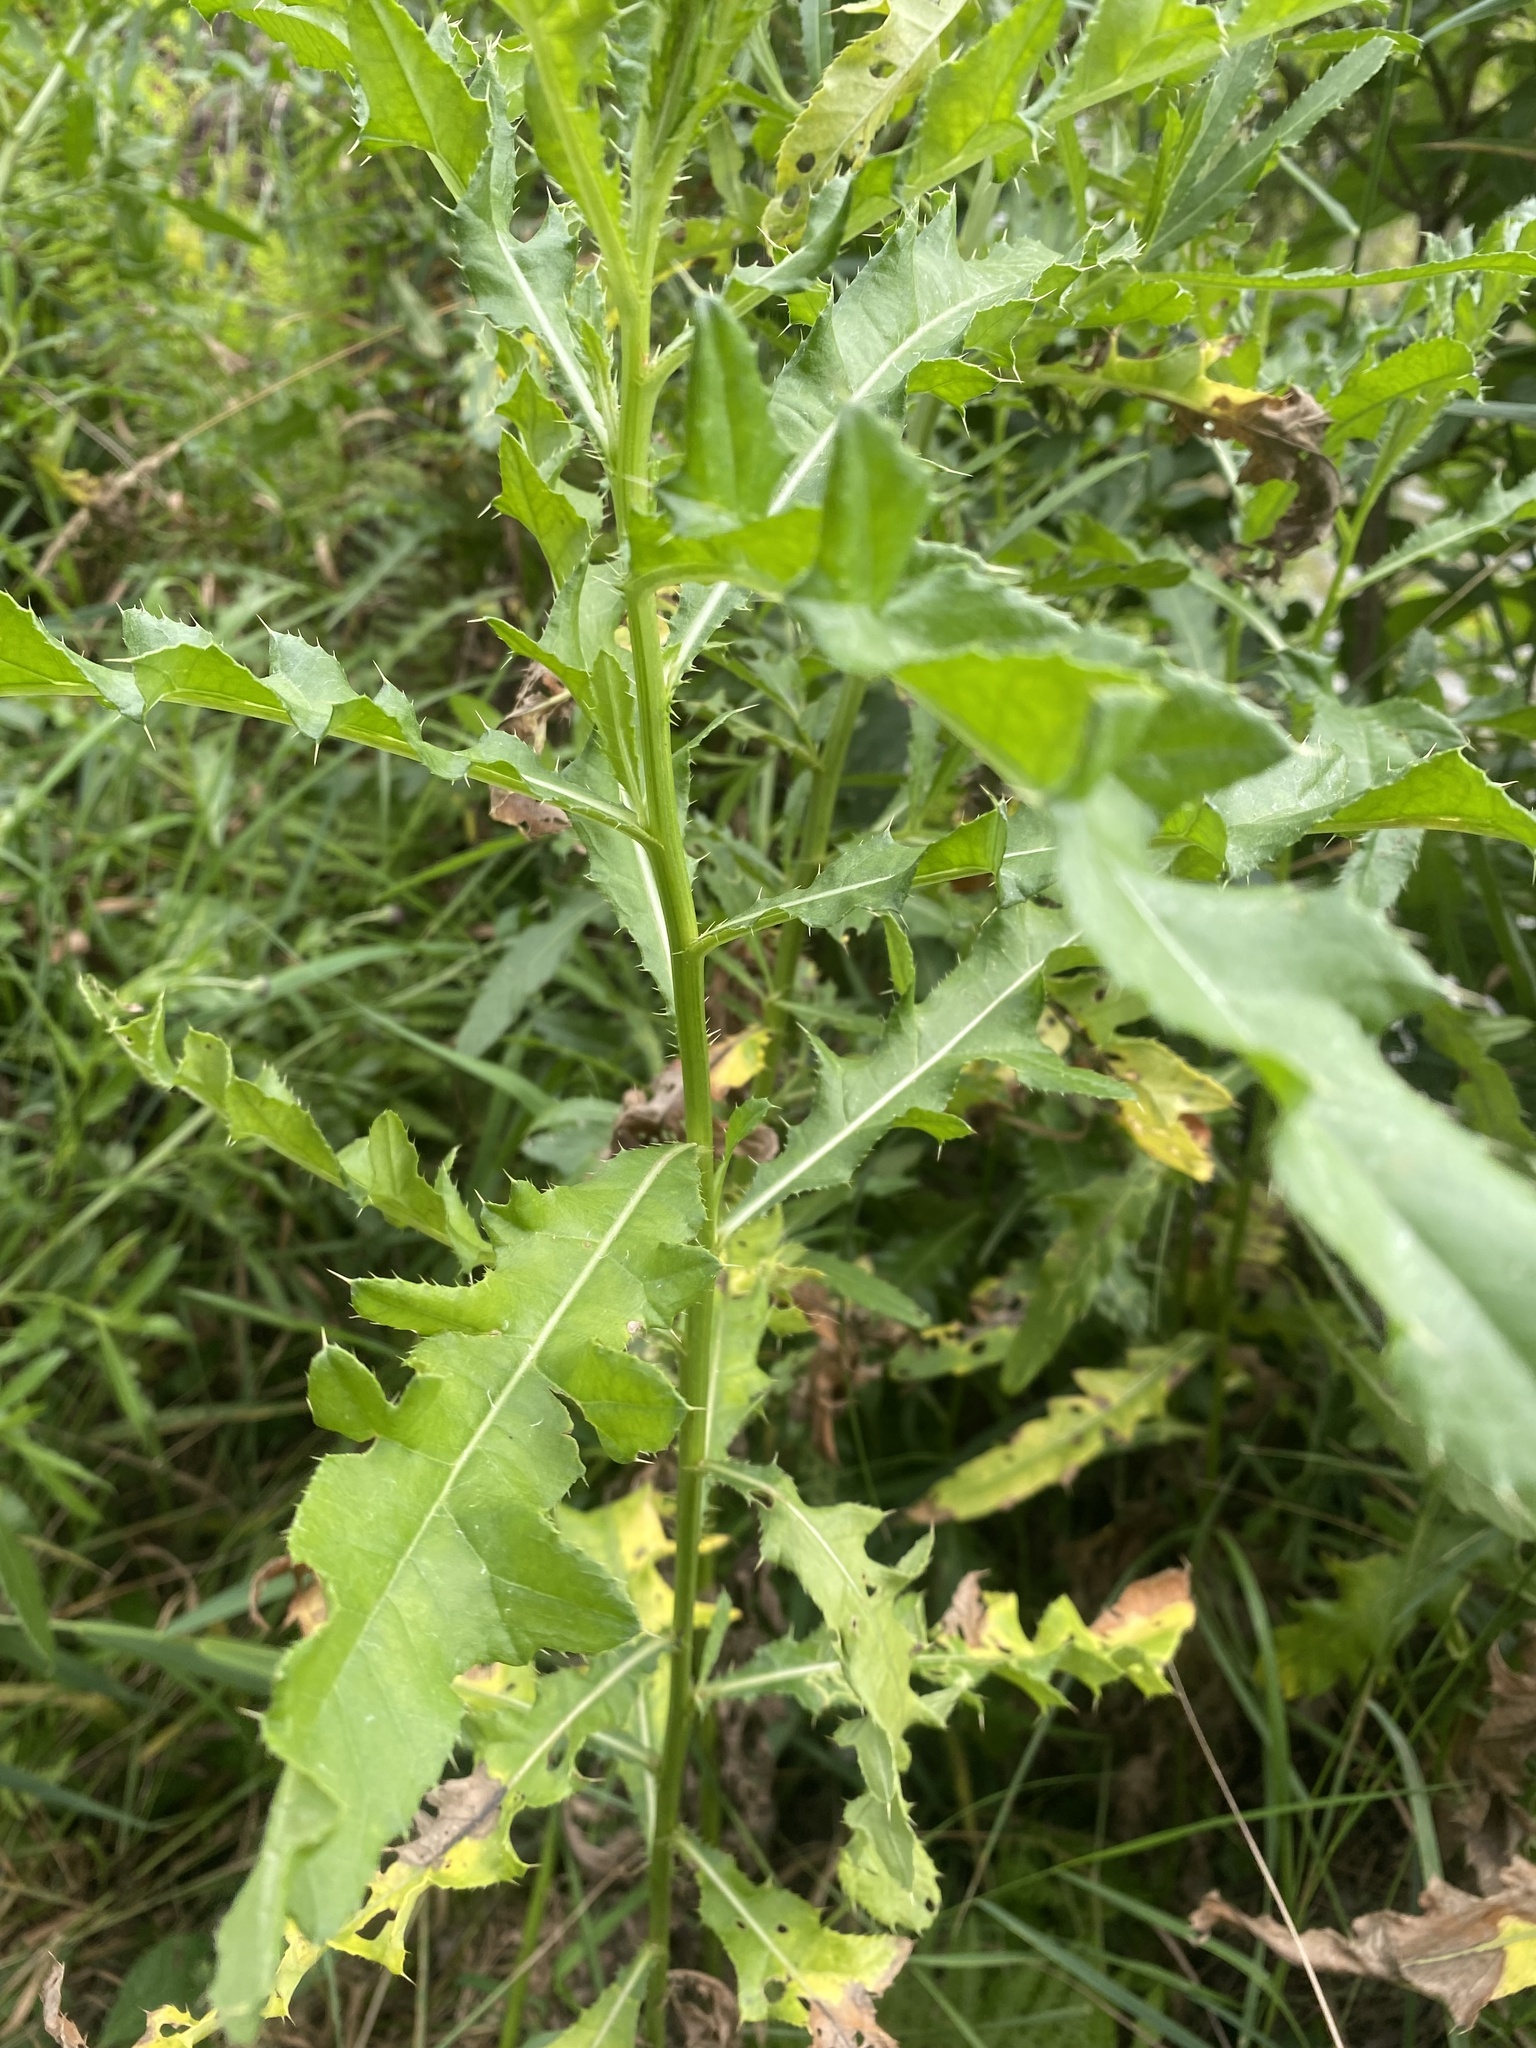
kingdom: Plantae
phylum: Tracheophyta
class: Magnoliopsida
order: Asterales
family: Asteraceae
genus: Cirsium
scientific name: Cirsium arvense
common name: Creeping thistle
